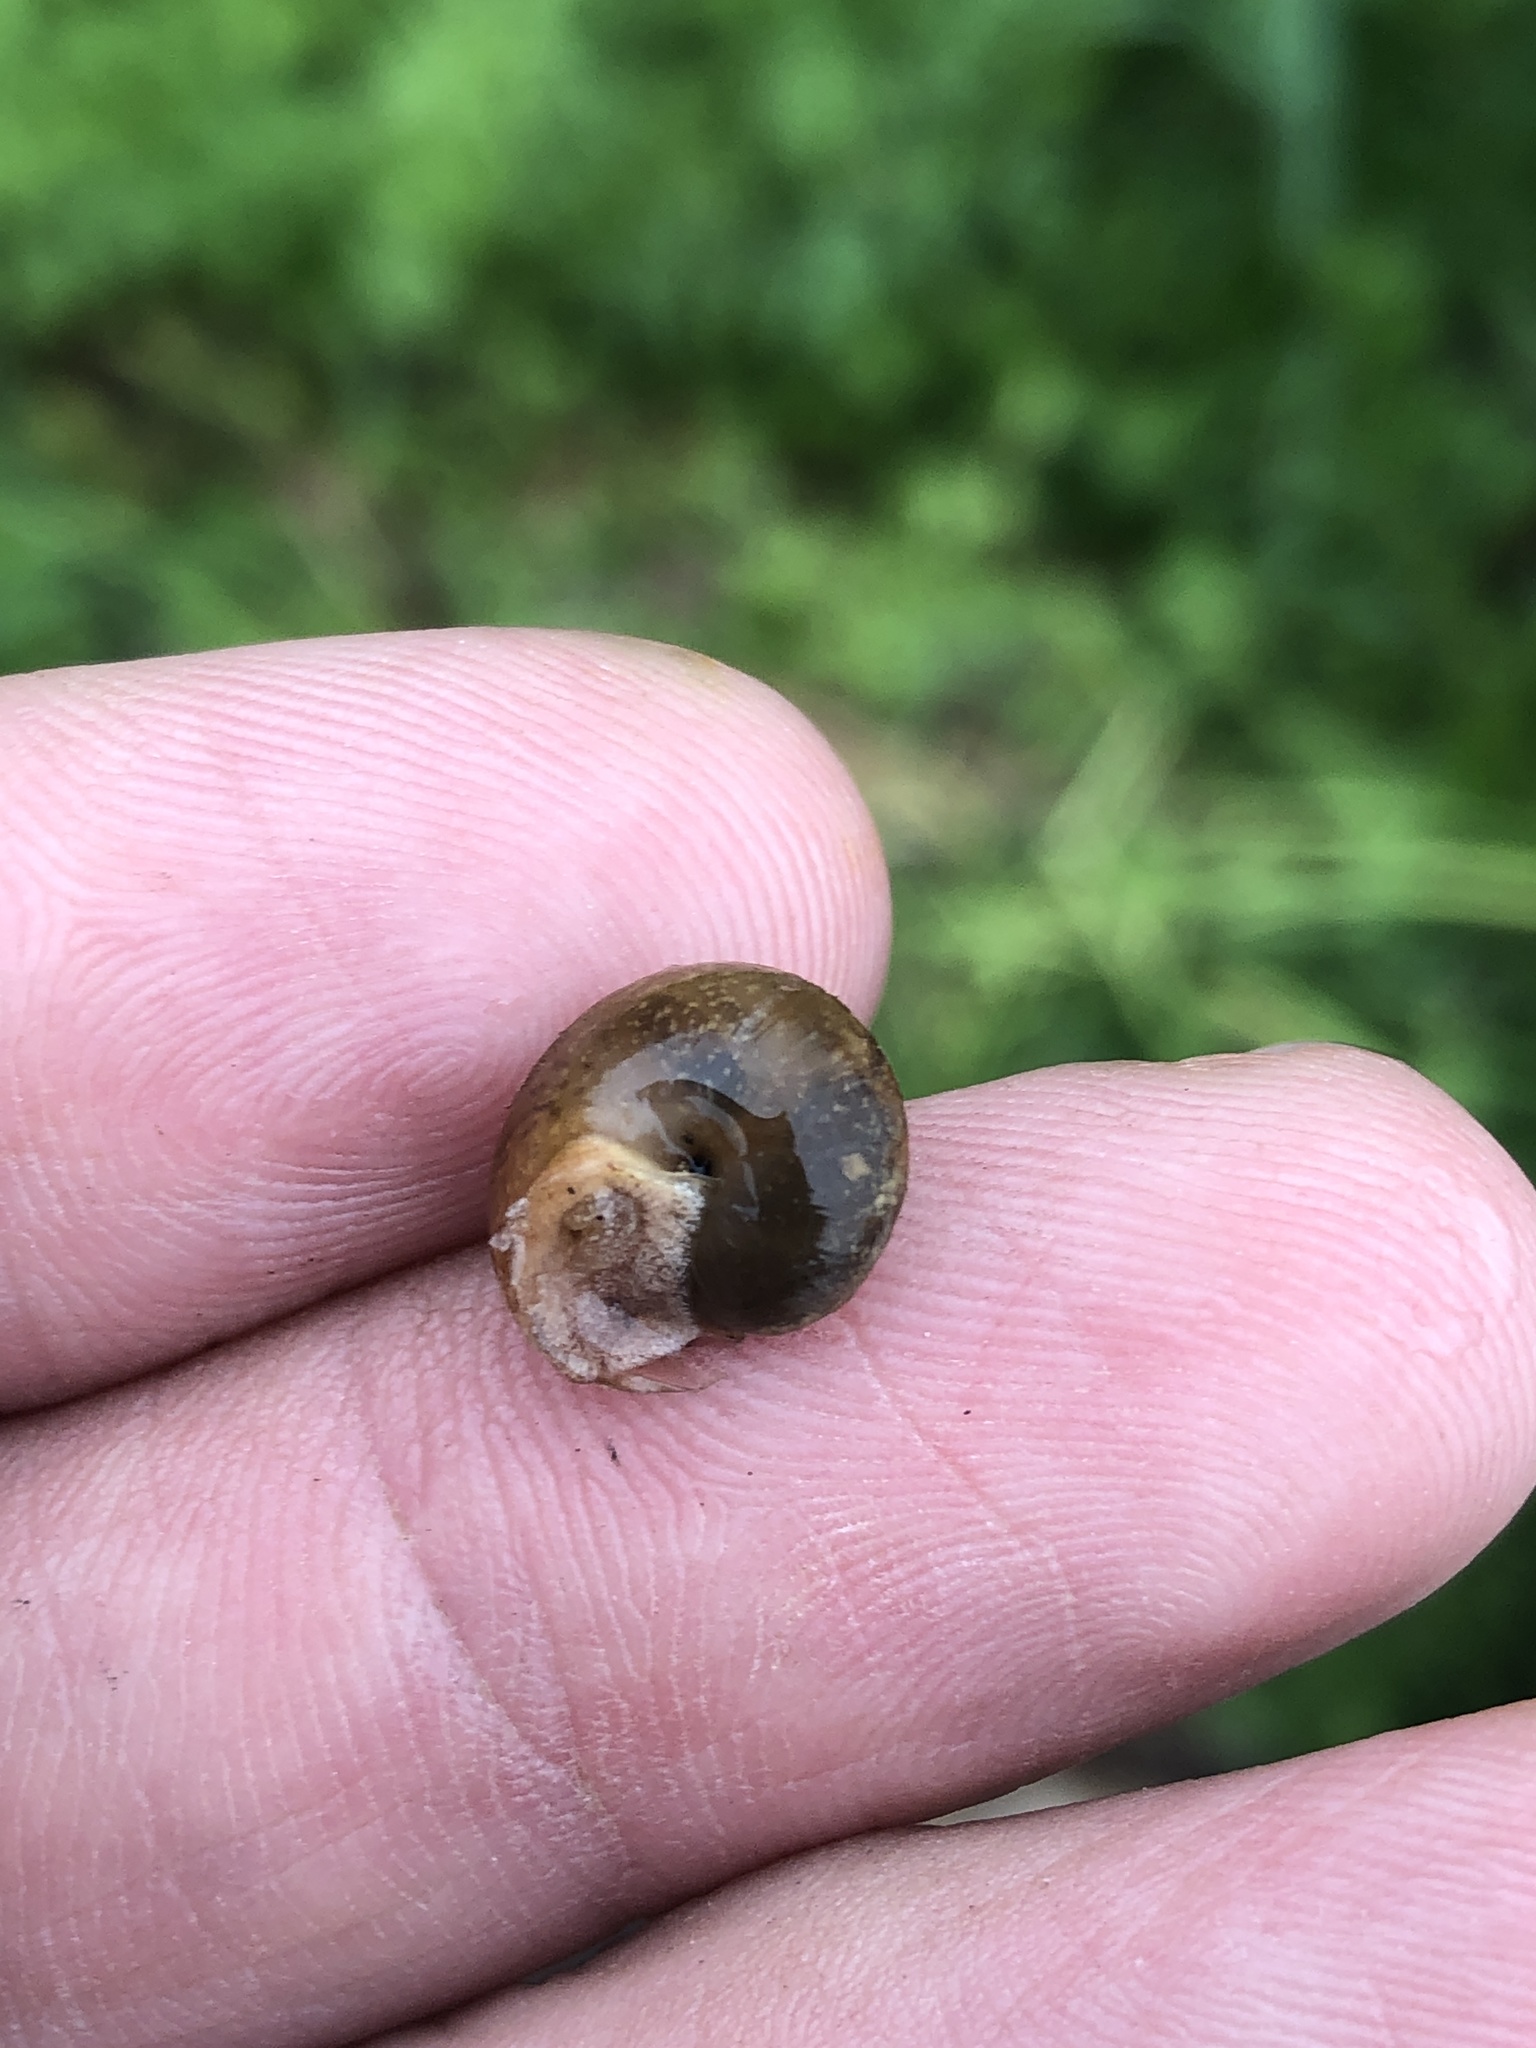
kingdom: Animalia
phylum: Mollusca
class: Gastropoda
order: Stylommatophora
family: Camaenidae
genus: Bradybaena
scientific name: Bradybaena similaris
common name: Asian trampsnail
